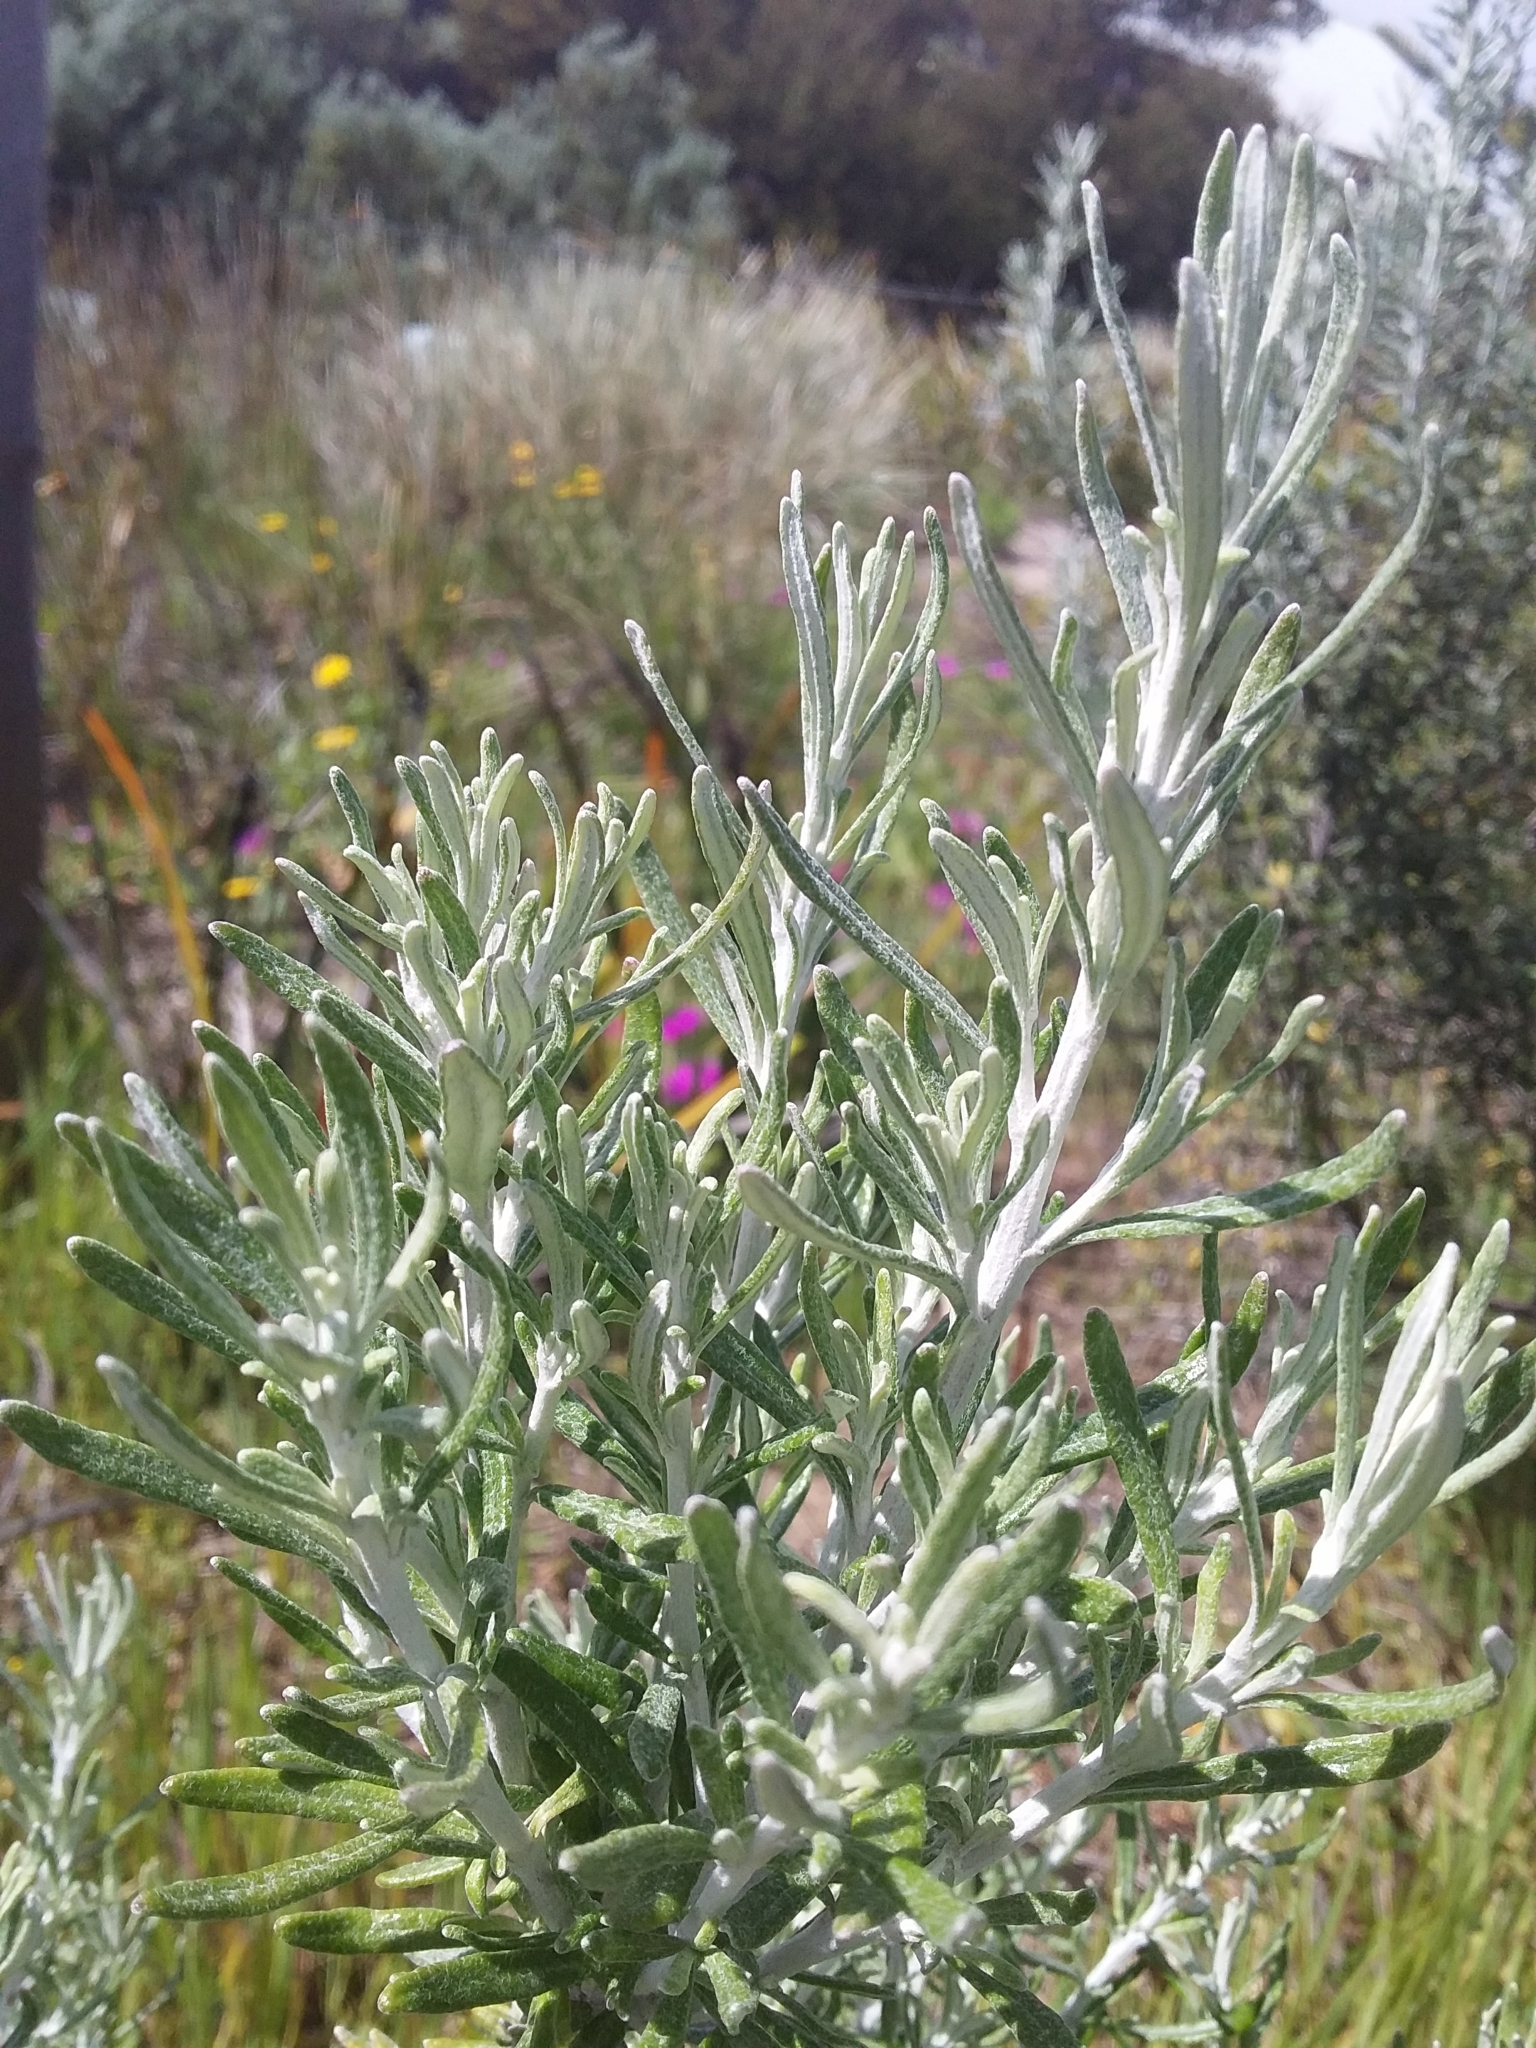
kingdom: Plantae
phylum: Tracheophyta
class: Magnoliopsida
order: Asterales
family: Asteraceae
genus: Olearia
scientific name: Olearia axillaris
